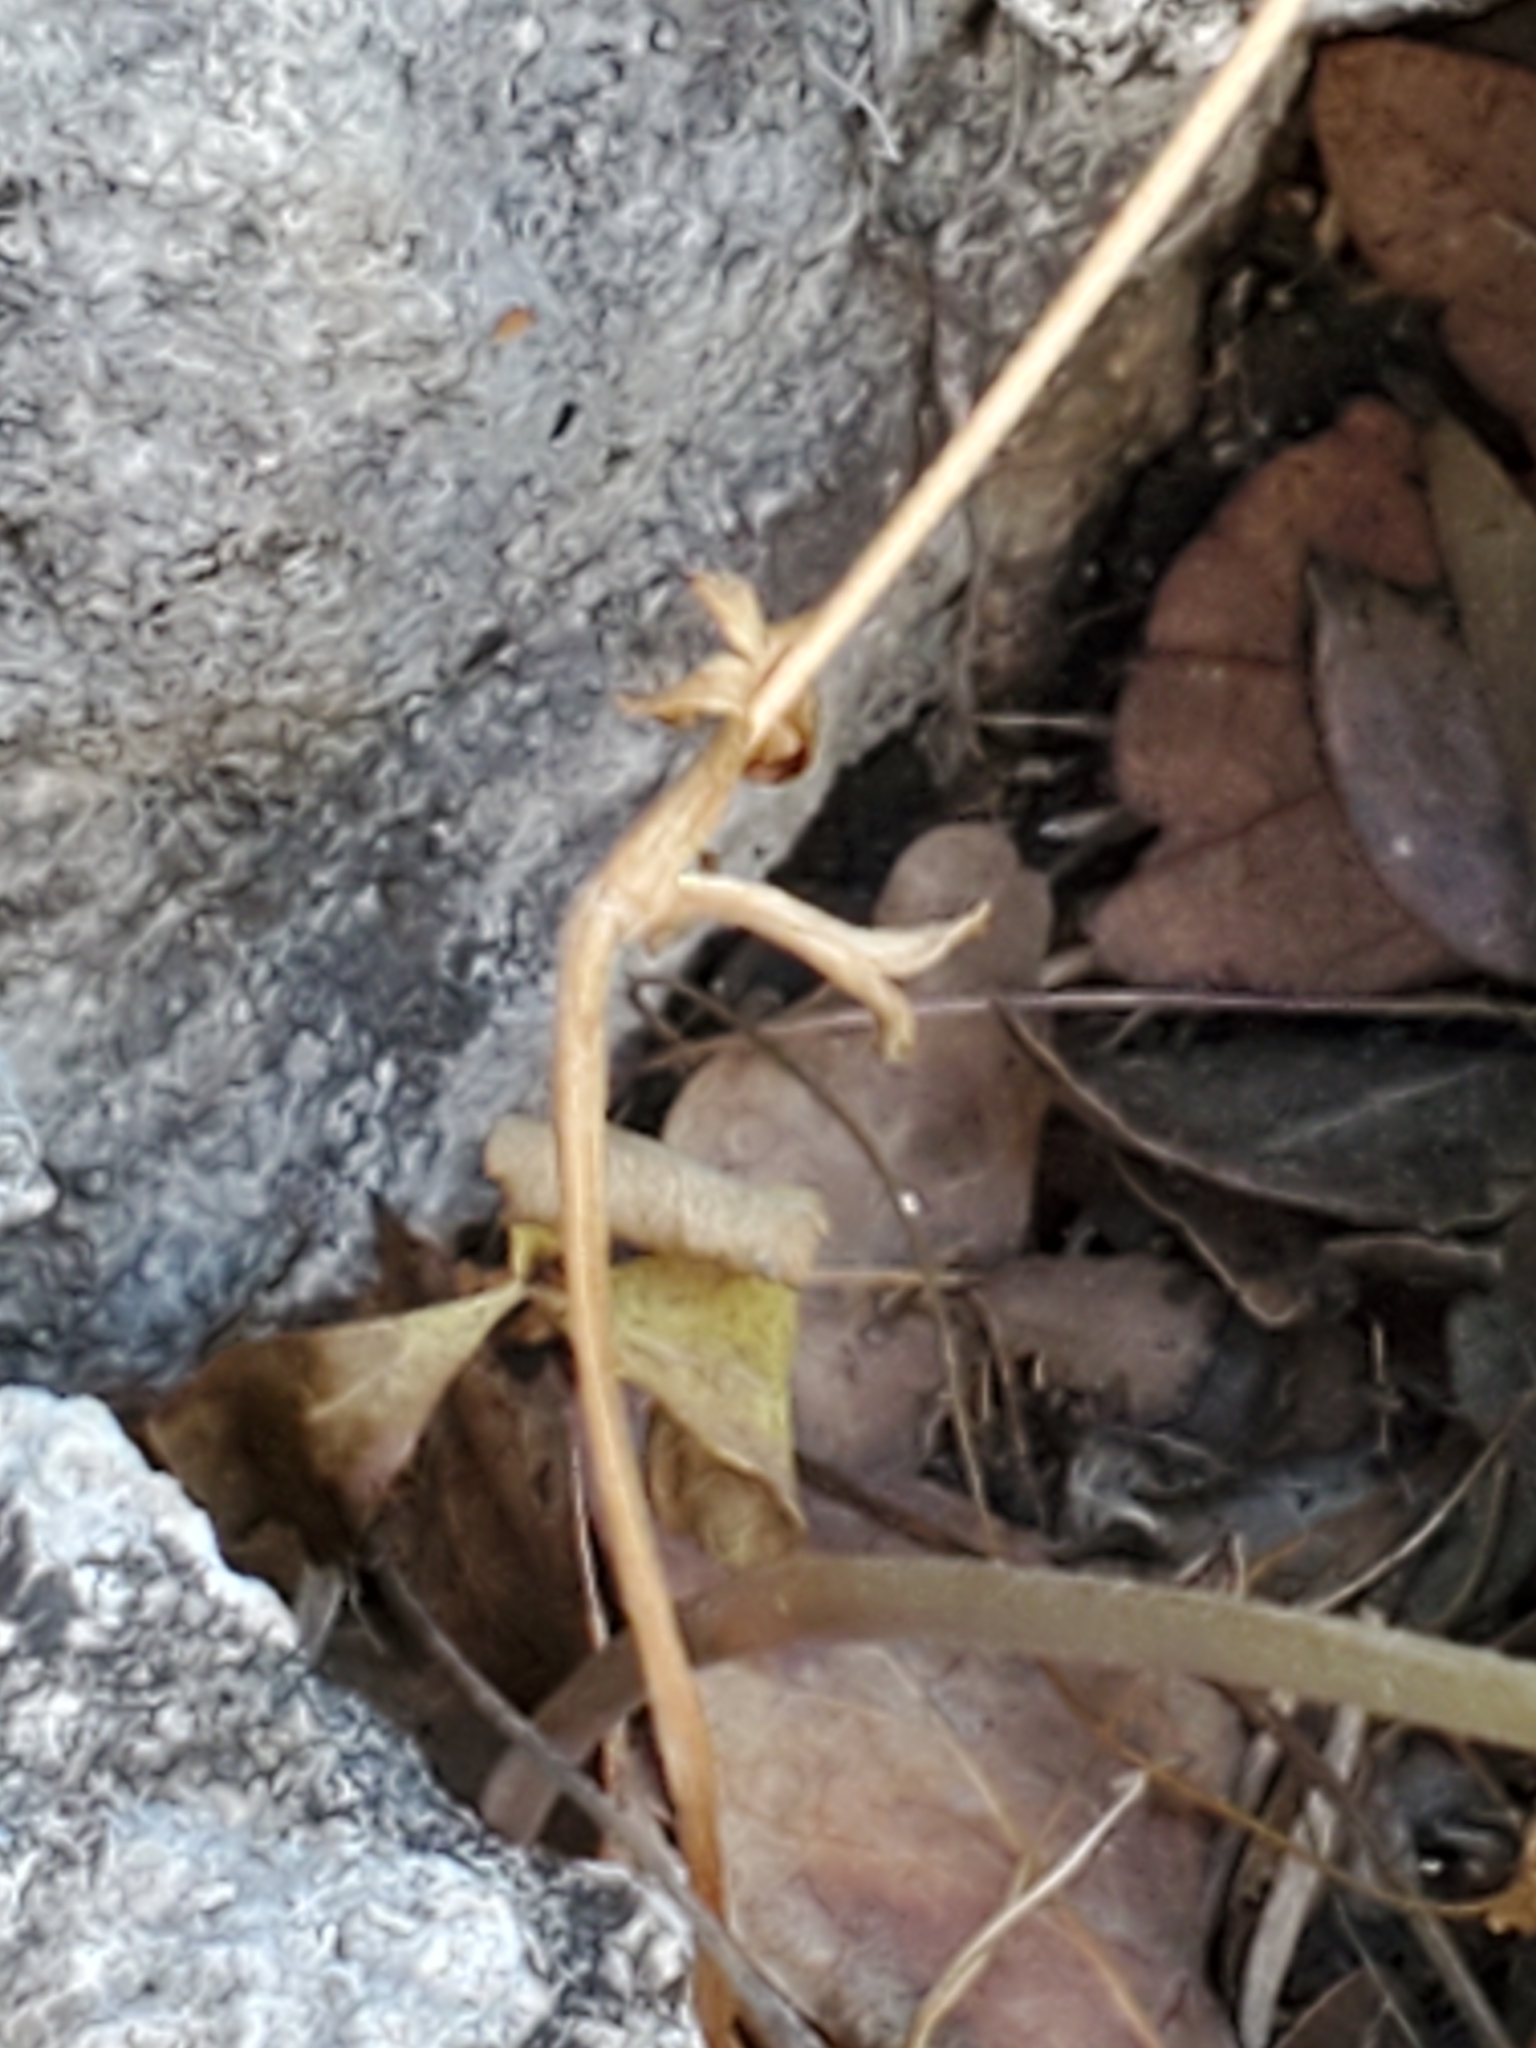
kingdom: Plantae
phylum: Tracheophyta
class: Magnoliopsida
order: Ranunculales
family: Ranunculaceae
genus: Anemone
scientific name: Anemone edwardsiana
